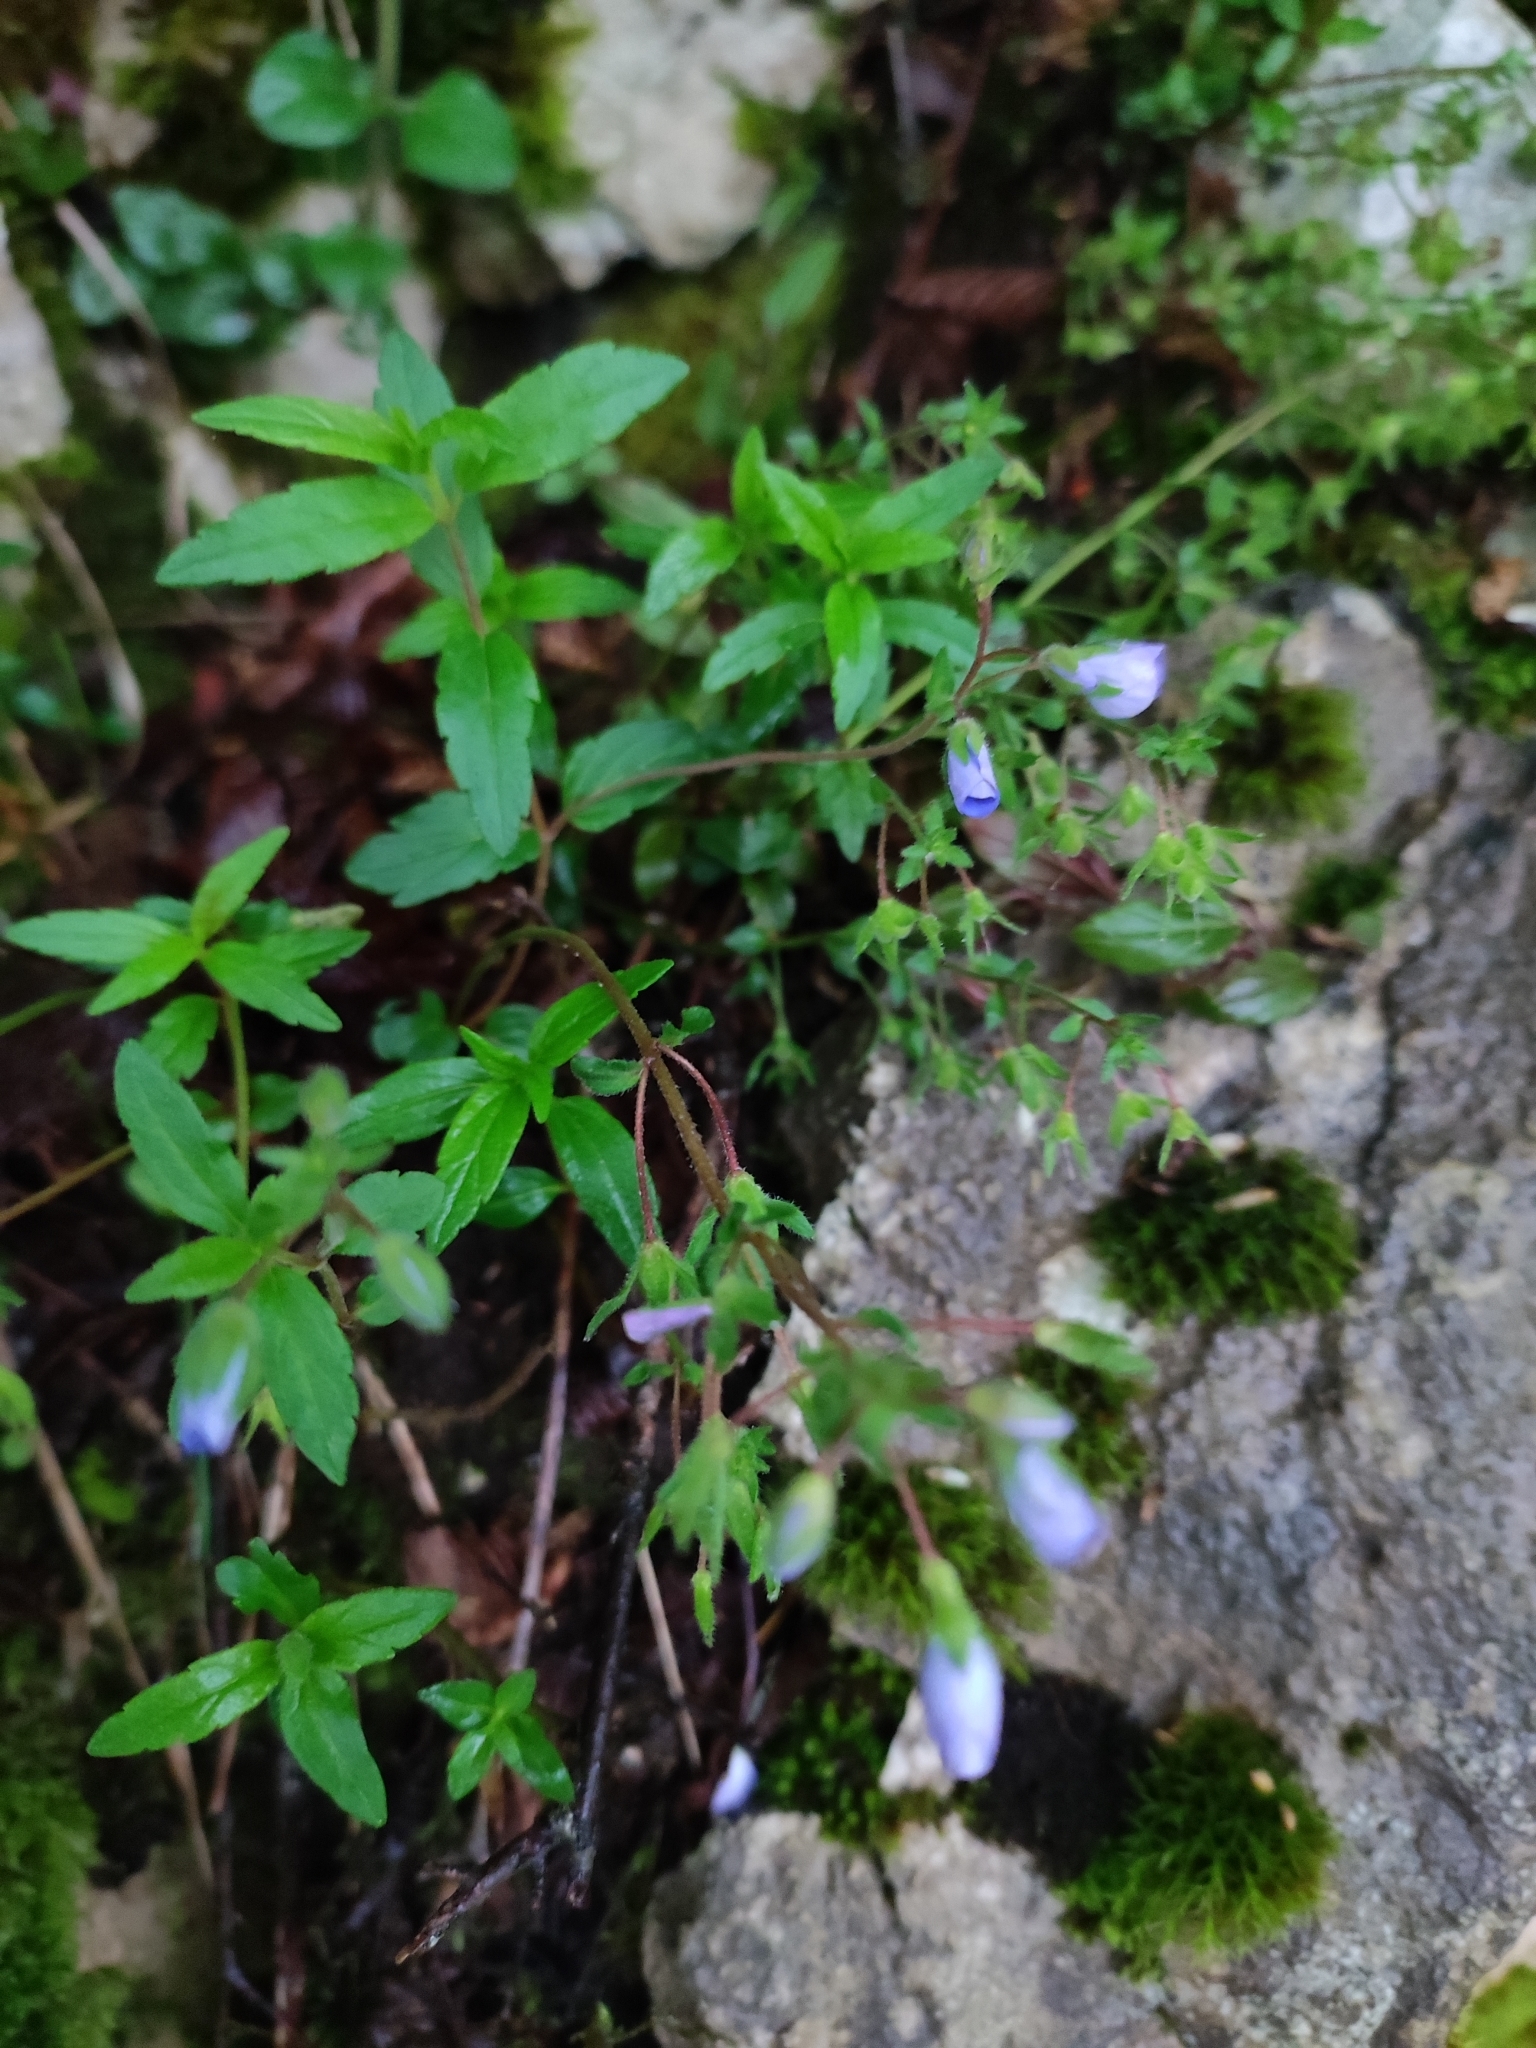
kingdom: Plantae
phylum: Tracheophyta
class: Magnoliopsida
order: Lamiales
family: Plantaginaceae
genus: Veronica
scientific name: Veronica
